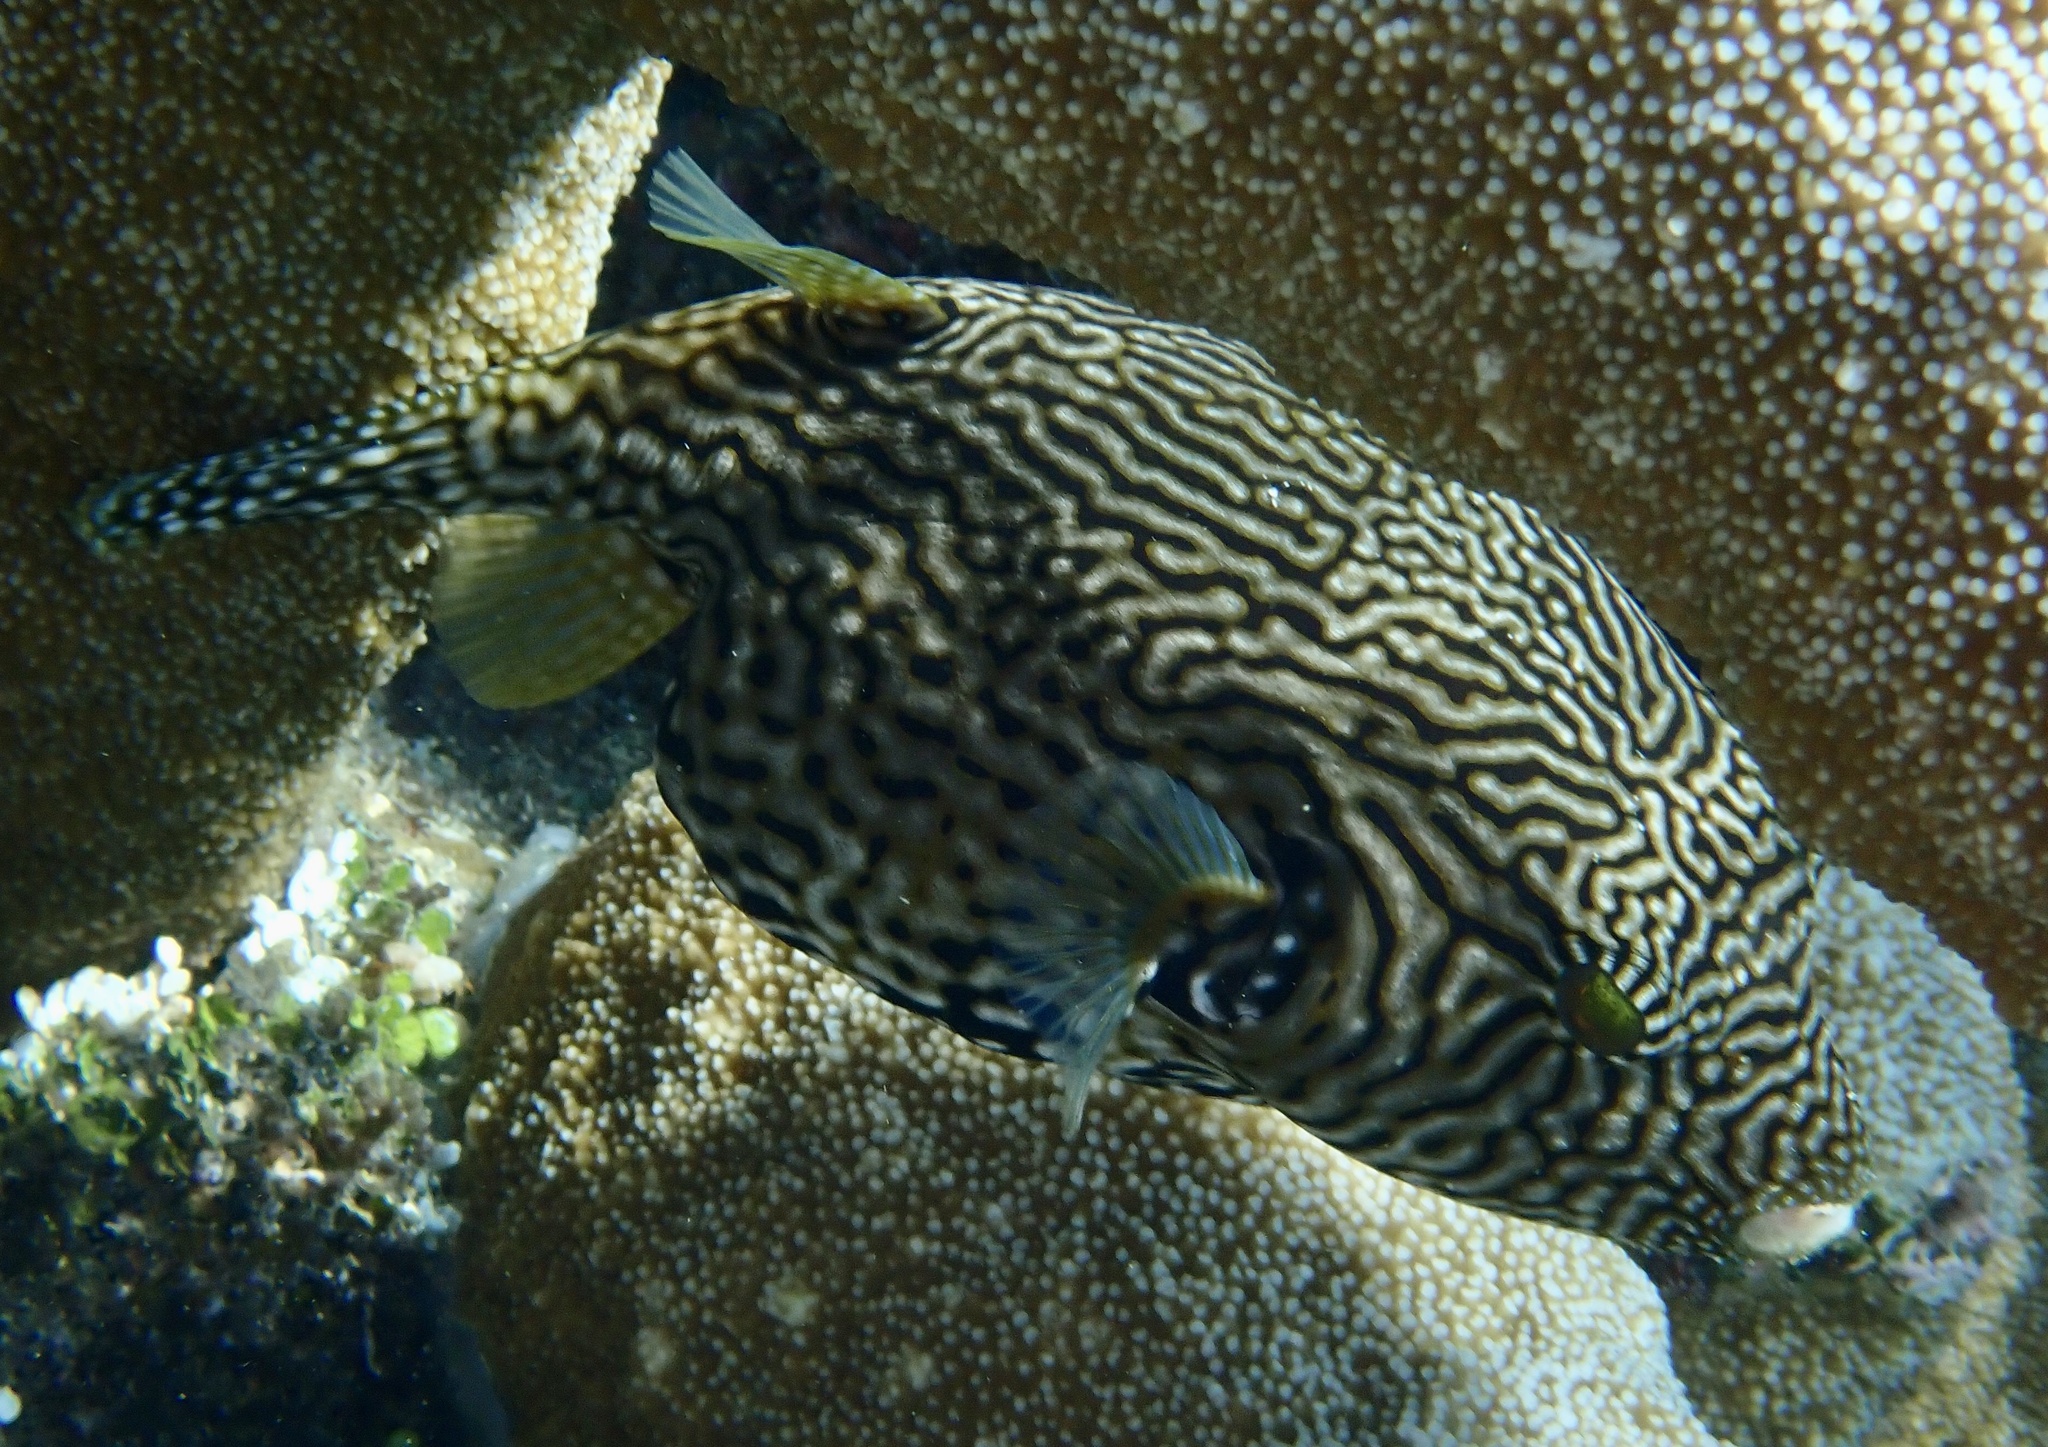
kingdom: Animalia
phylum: Chordata
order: Tetraodontiformes
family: Tetraodontidae
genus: Arothron
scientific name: Arothron mappa
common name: Map blaasop
